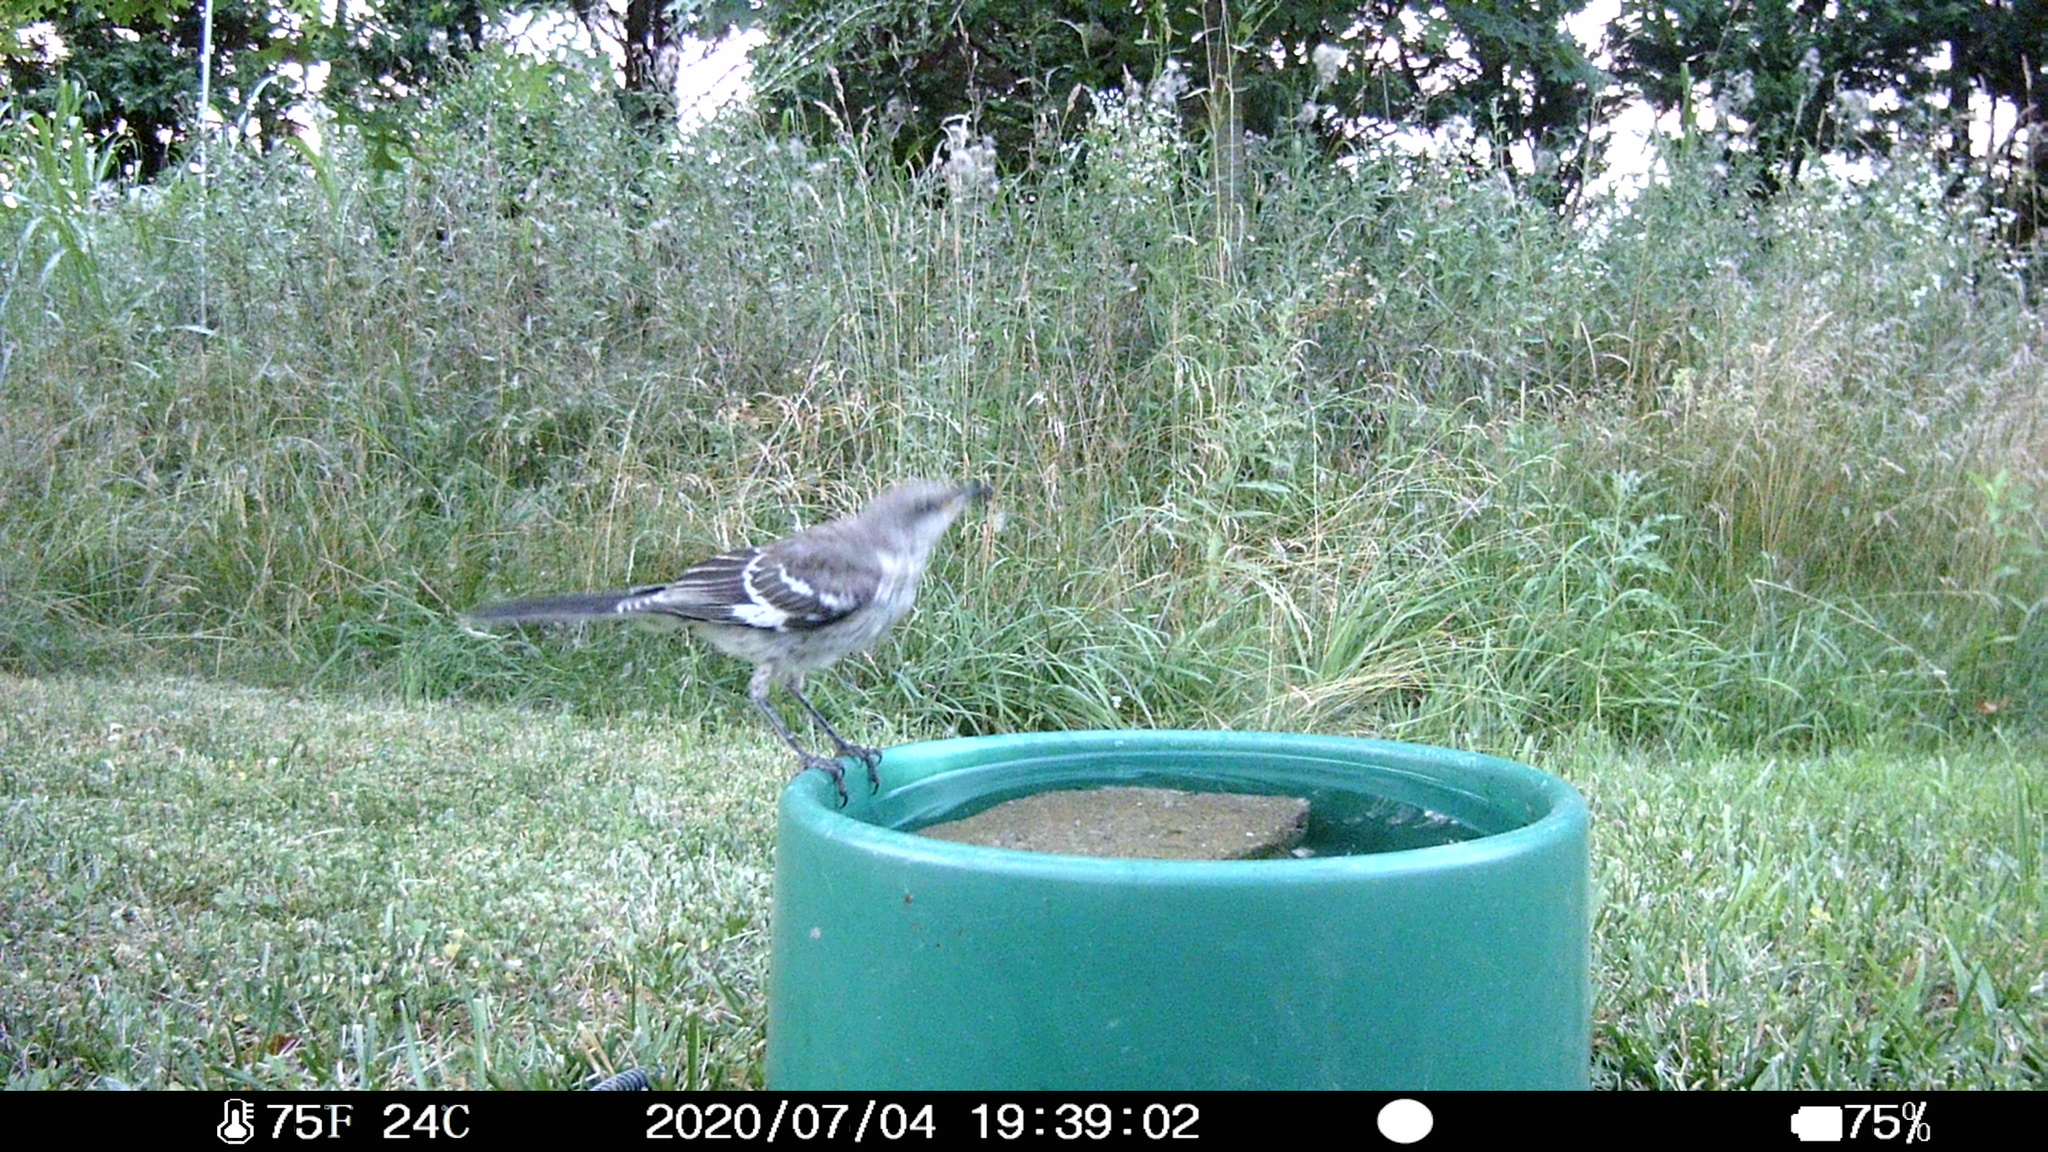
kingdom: Animalia
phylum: Chordata
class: Aves
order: Passeriformes
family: Mimidae
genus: Mimus
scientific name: Mimus polyglottos
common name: Northern mockingbird
